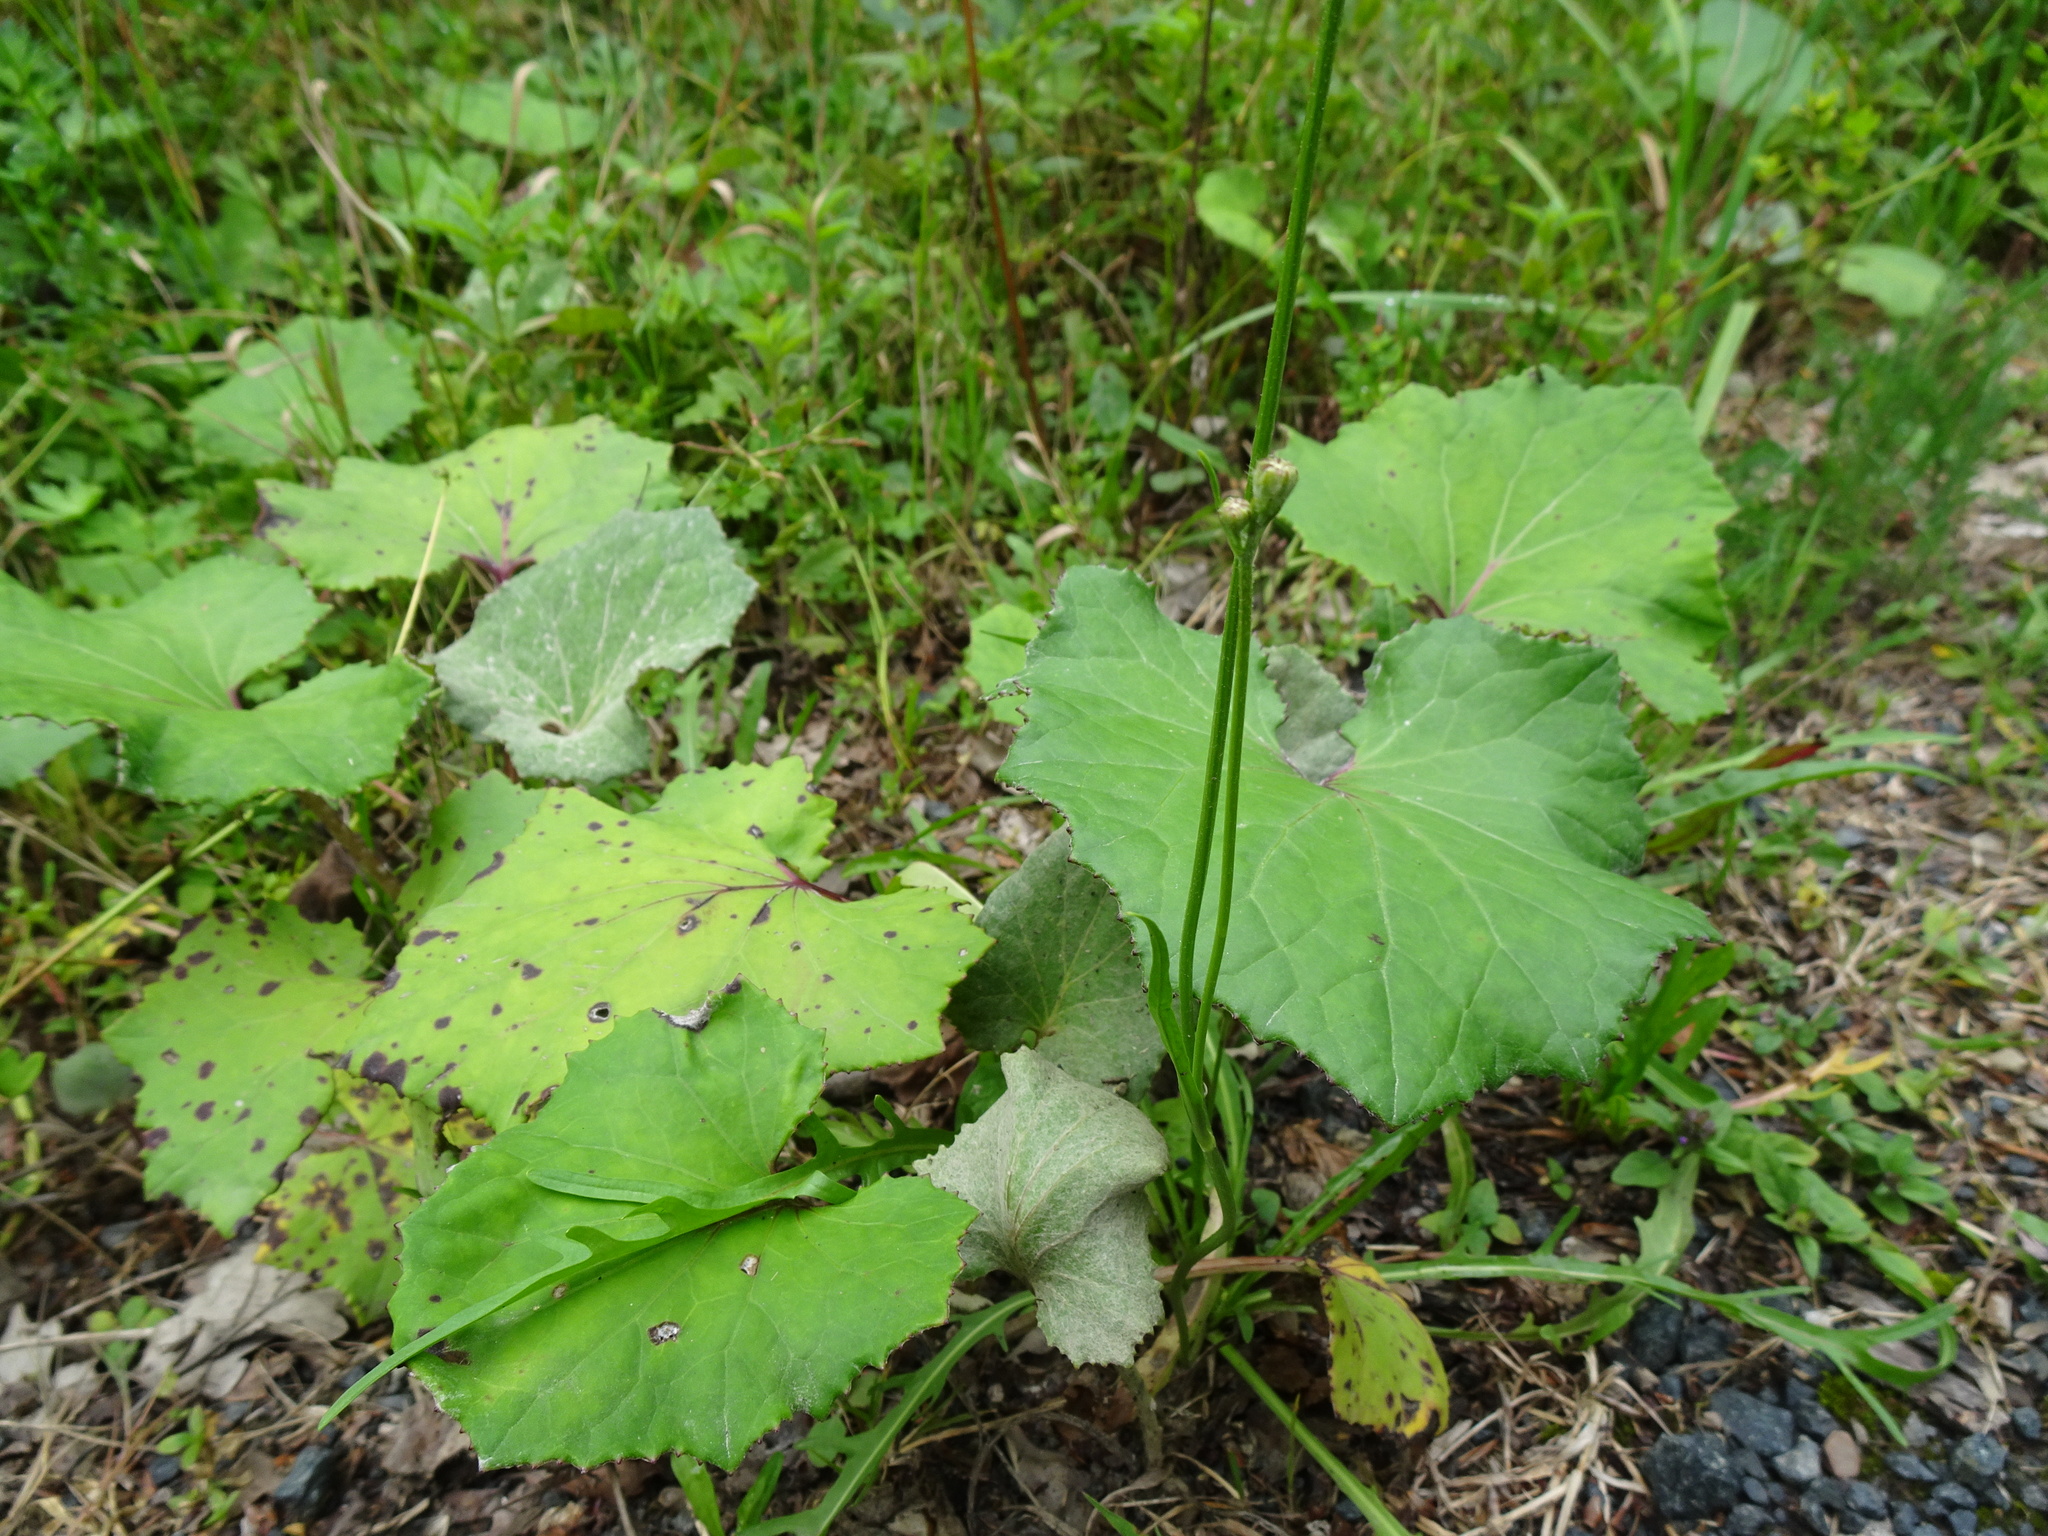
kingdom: Plantae
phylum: Tracheophyta
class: Magnoliopsida
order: Asterales
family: Asteraceae
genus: Tussilago
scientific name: Tussilago farfara
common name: Coltsfoot
